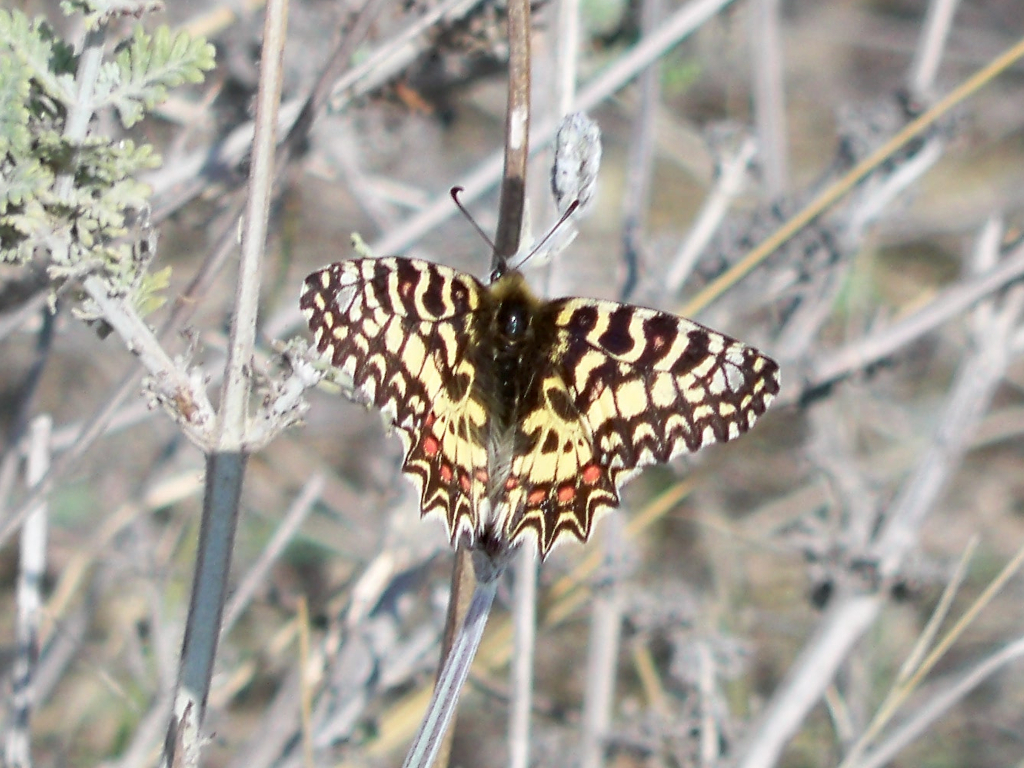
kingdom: Animalia
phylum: Arthropoda
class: Insecta
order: Lepidoptera
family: Papilionidae
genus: Zerynthia
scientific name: Zerynthia rumina
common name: Spanish festoon
